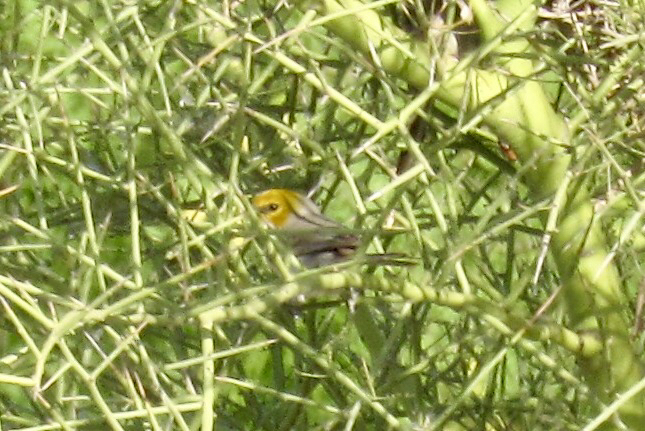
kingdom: Animalia
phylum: Chordata
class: Aves
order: Passeriformes
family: Remizidae
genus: Auriparus
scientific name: Auriparus flaviceps
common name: Verdin
